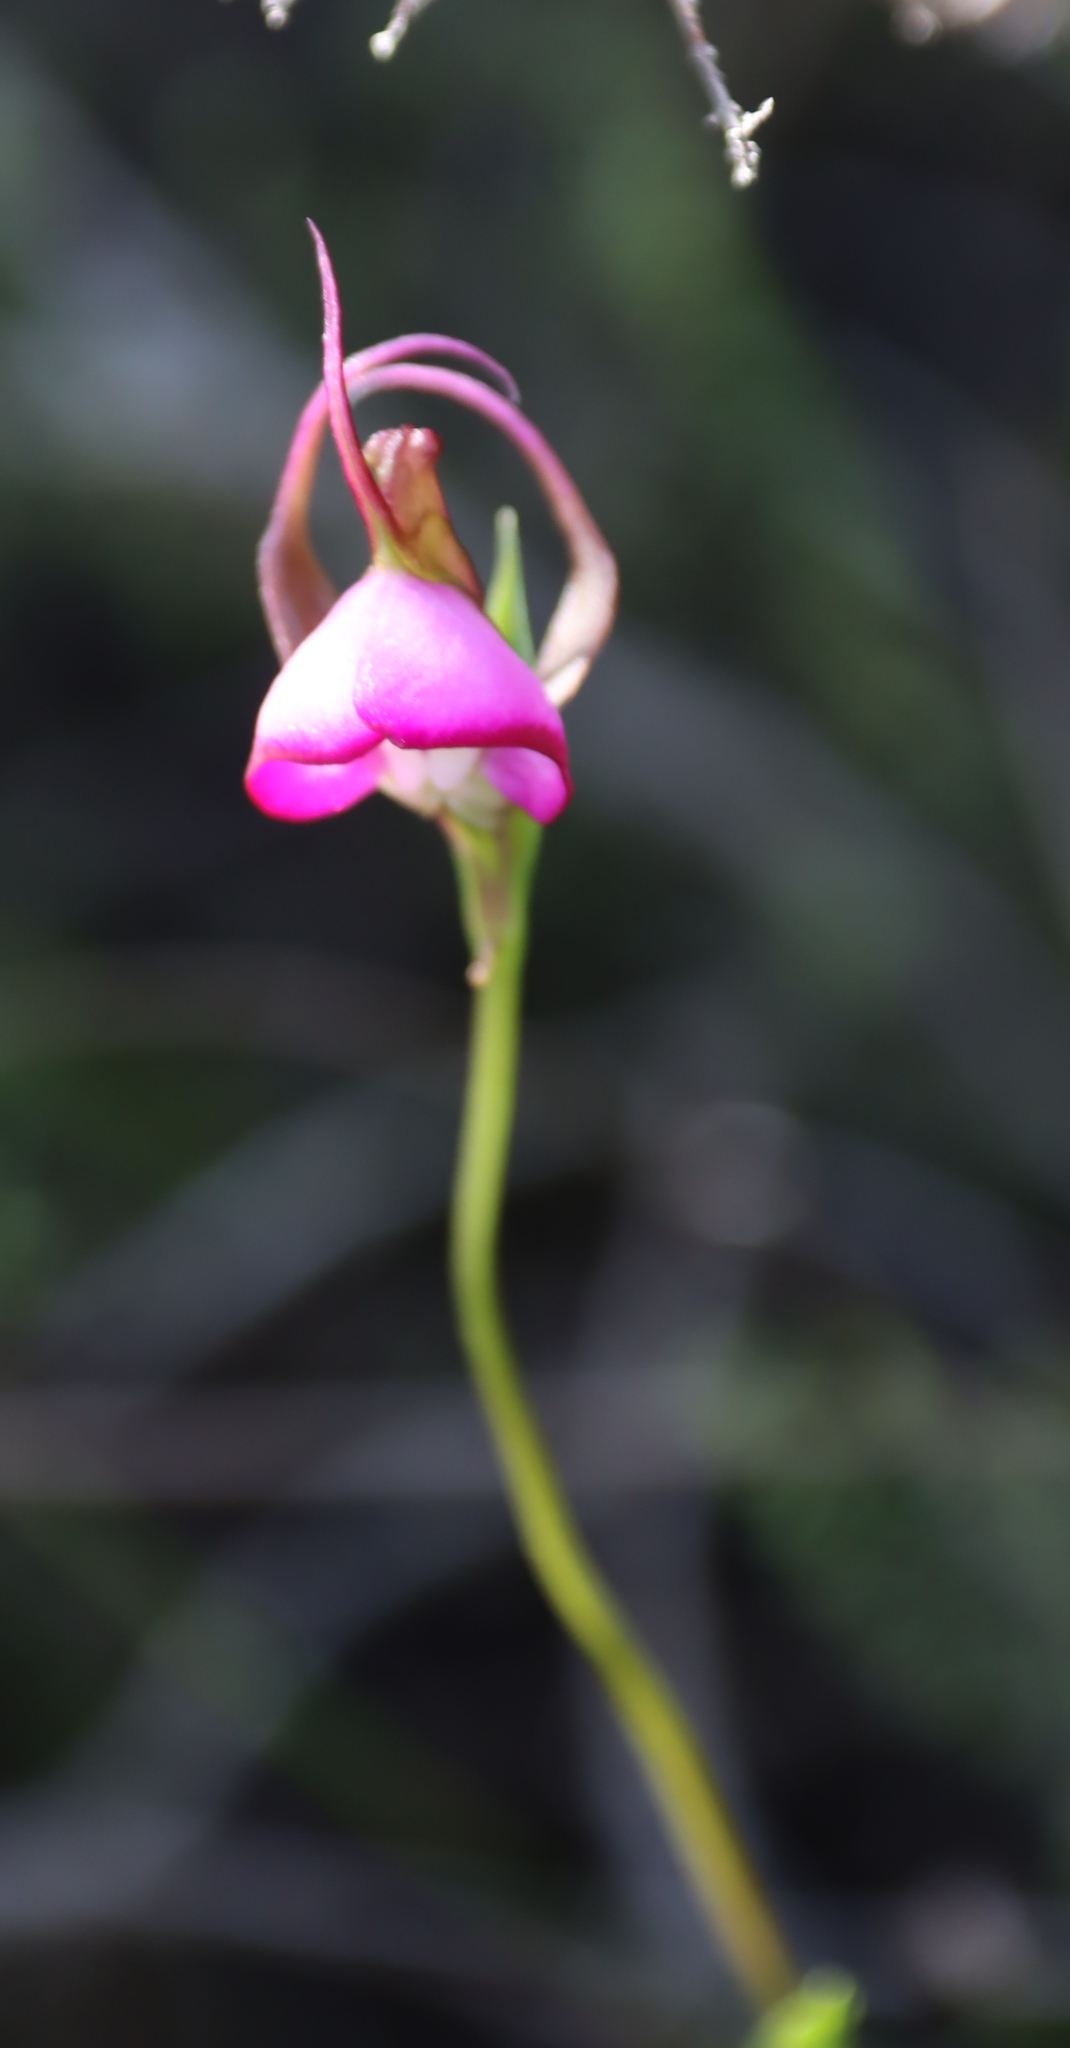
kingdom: Plantae
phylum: Tracheophyta
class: Liliopsida
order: Asparagales
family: Orchidaceae
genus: Disperis
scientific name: Disperis capensis
